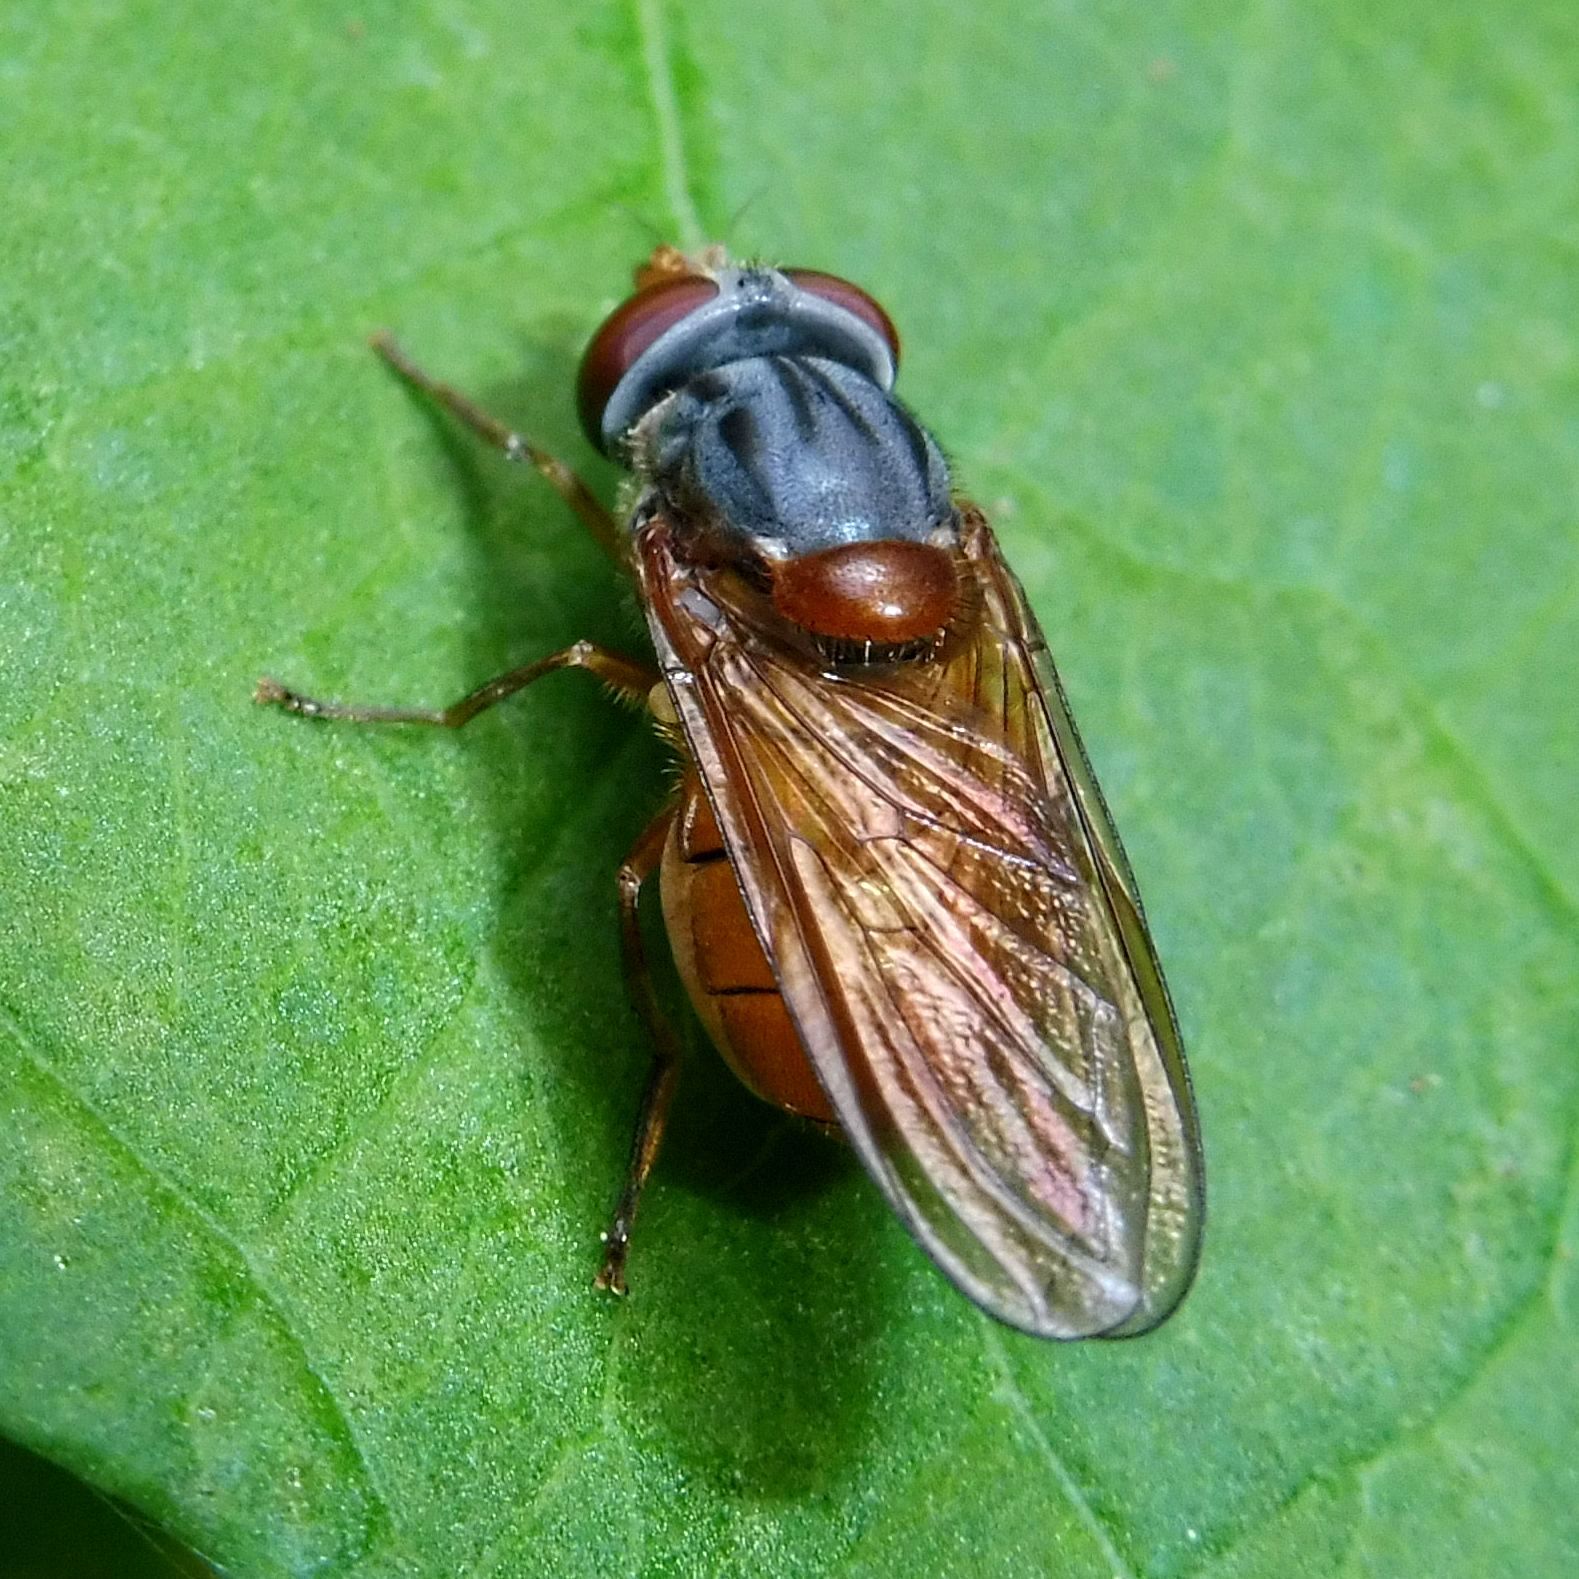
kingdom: Animalia
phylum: Arthropoda
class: Insecta
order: Diptera
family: Syrphidae
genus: Rhingia
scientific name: Rhingia rostrata
